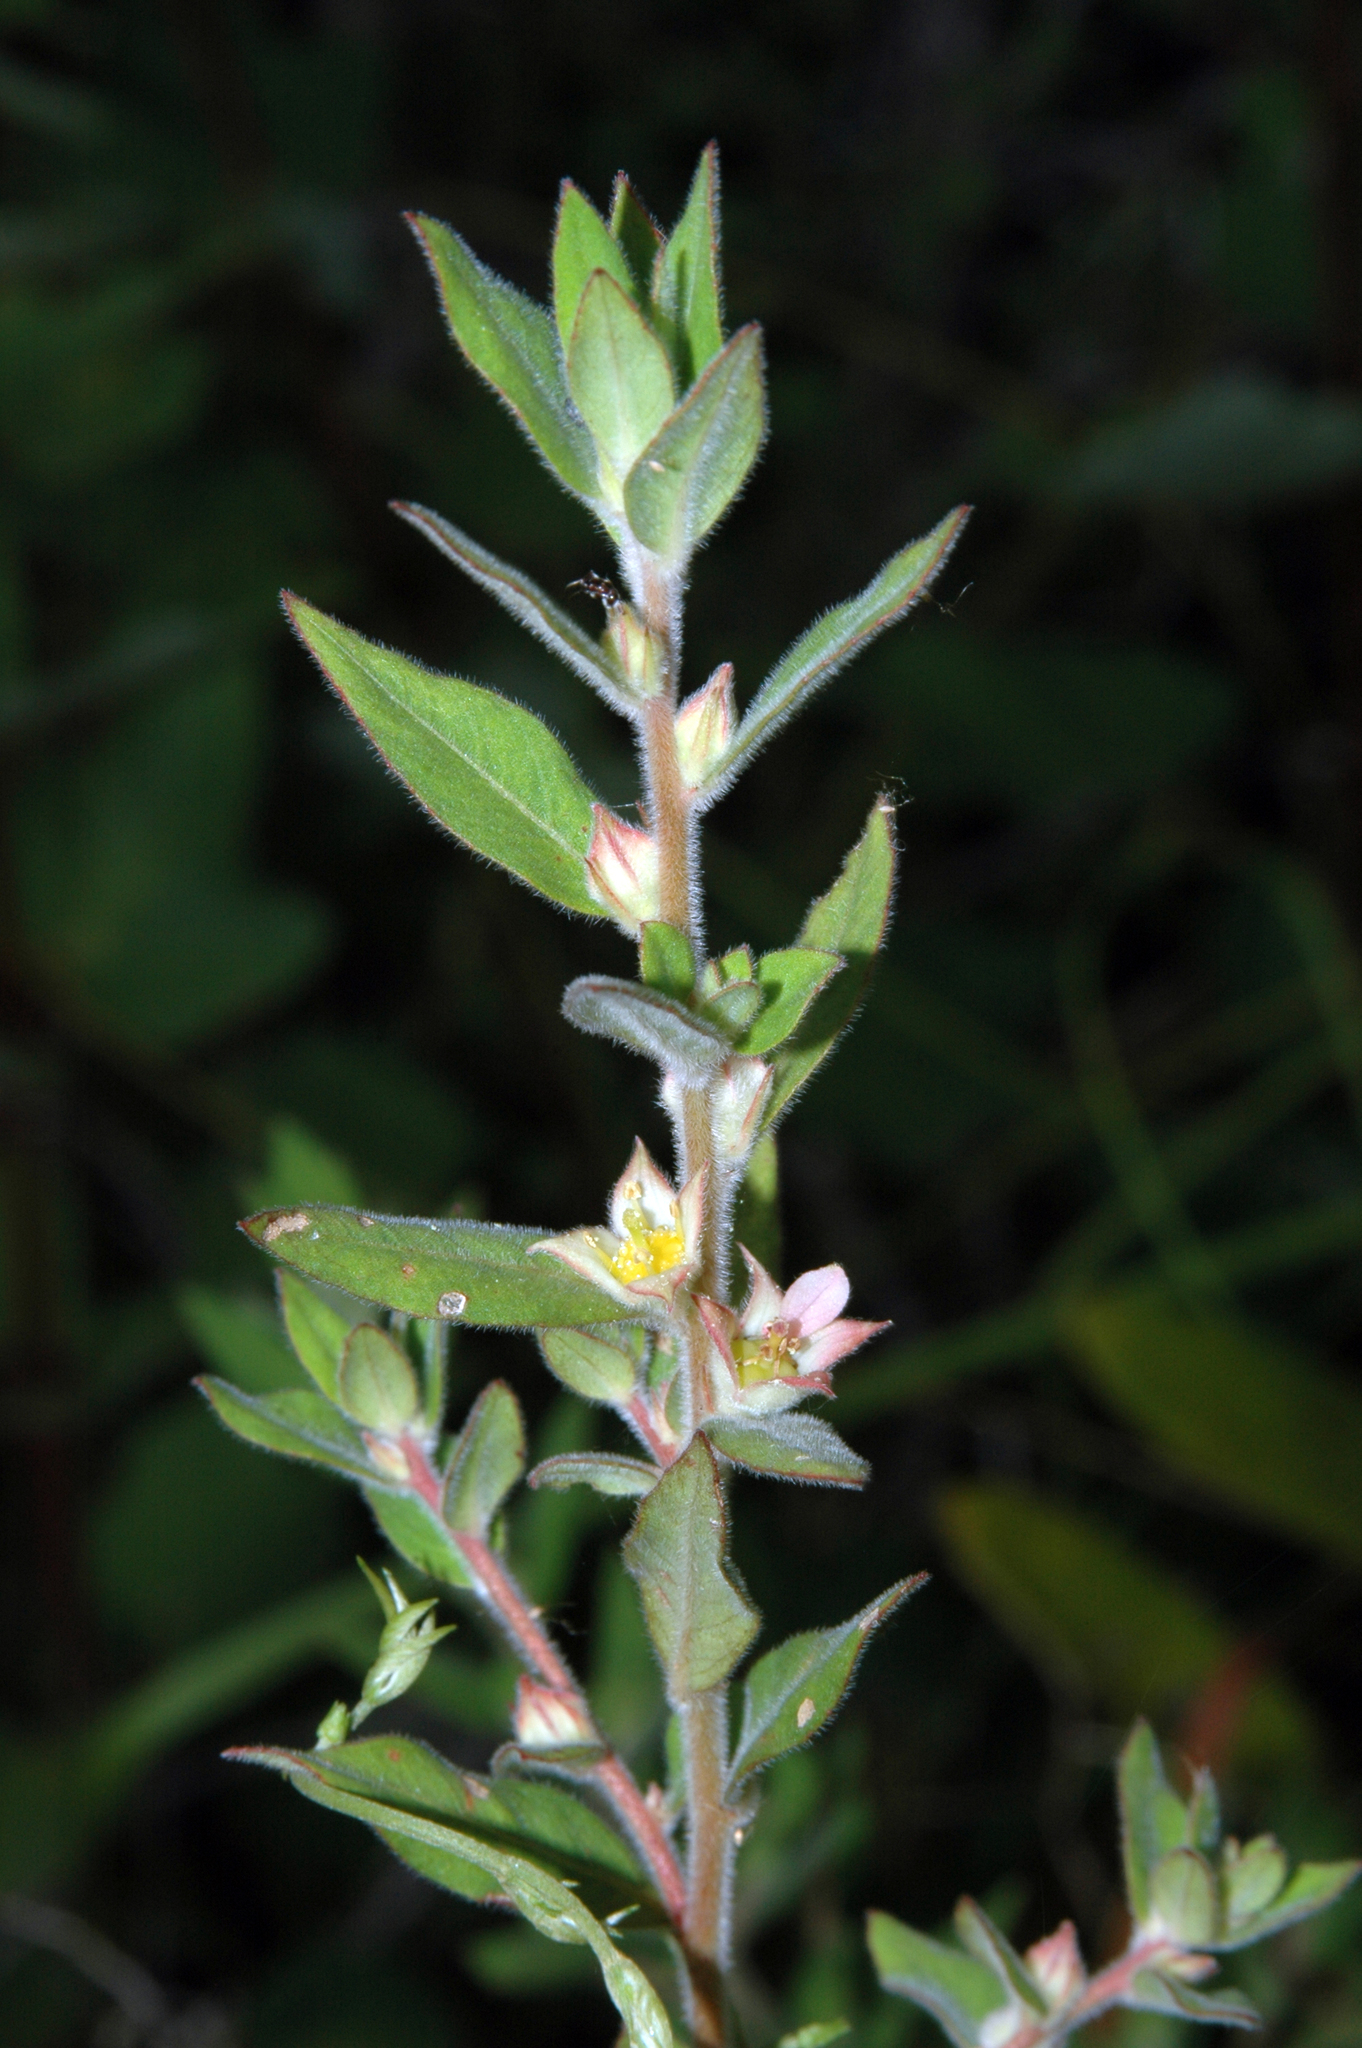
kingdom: Plantae
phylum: Tracheophyta
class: Magnoliopsida
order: Myrtales
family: Onagraceae
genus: Ludwigia
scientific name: Ludwigia pilosa
